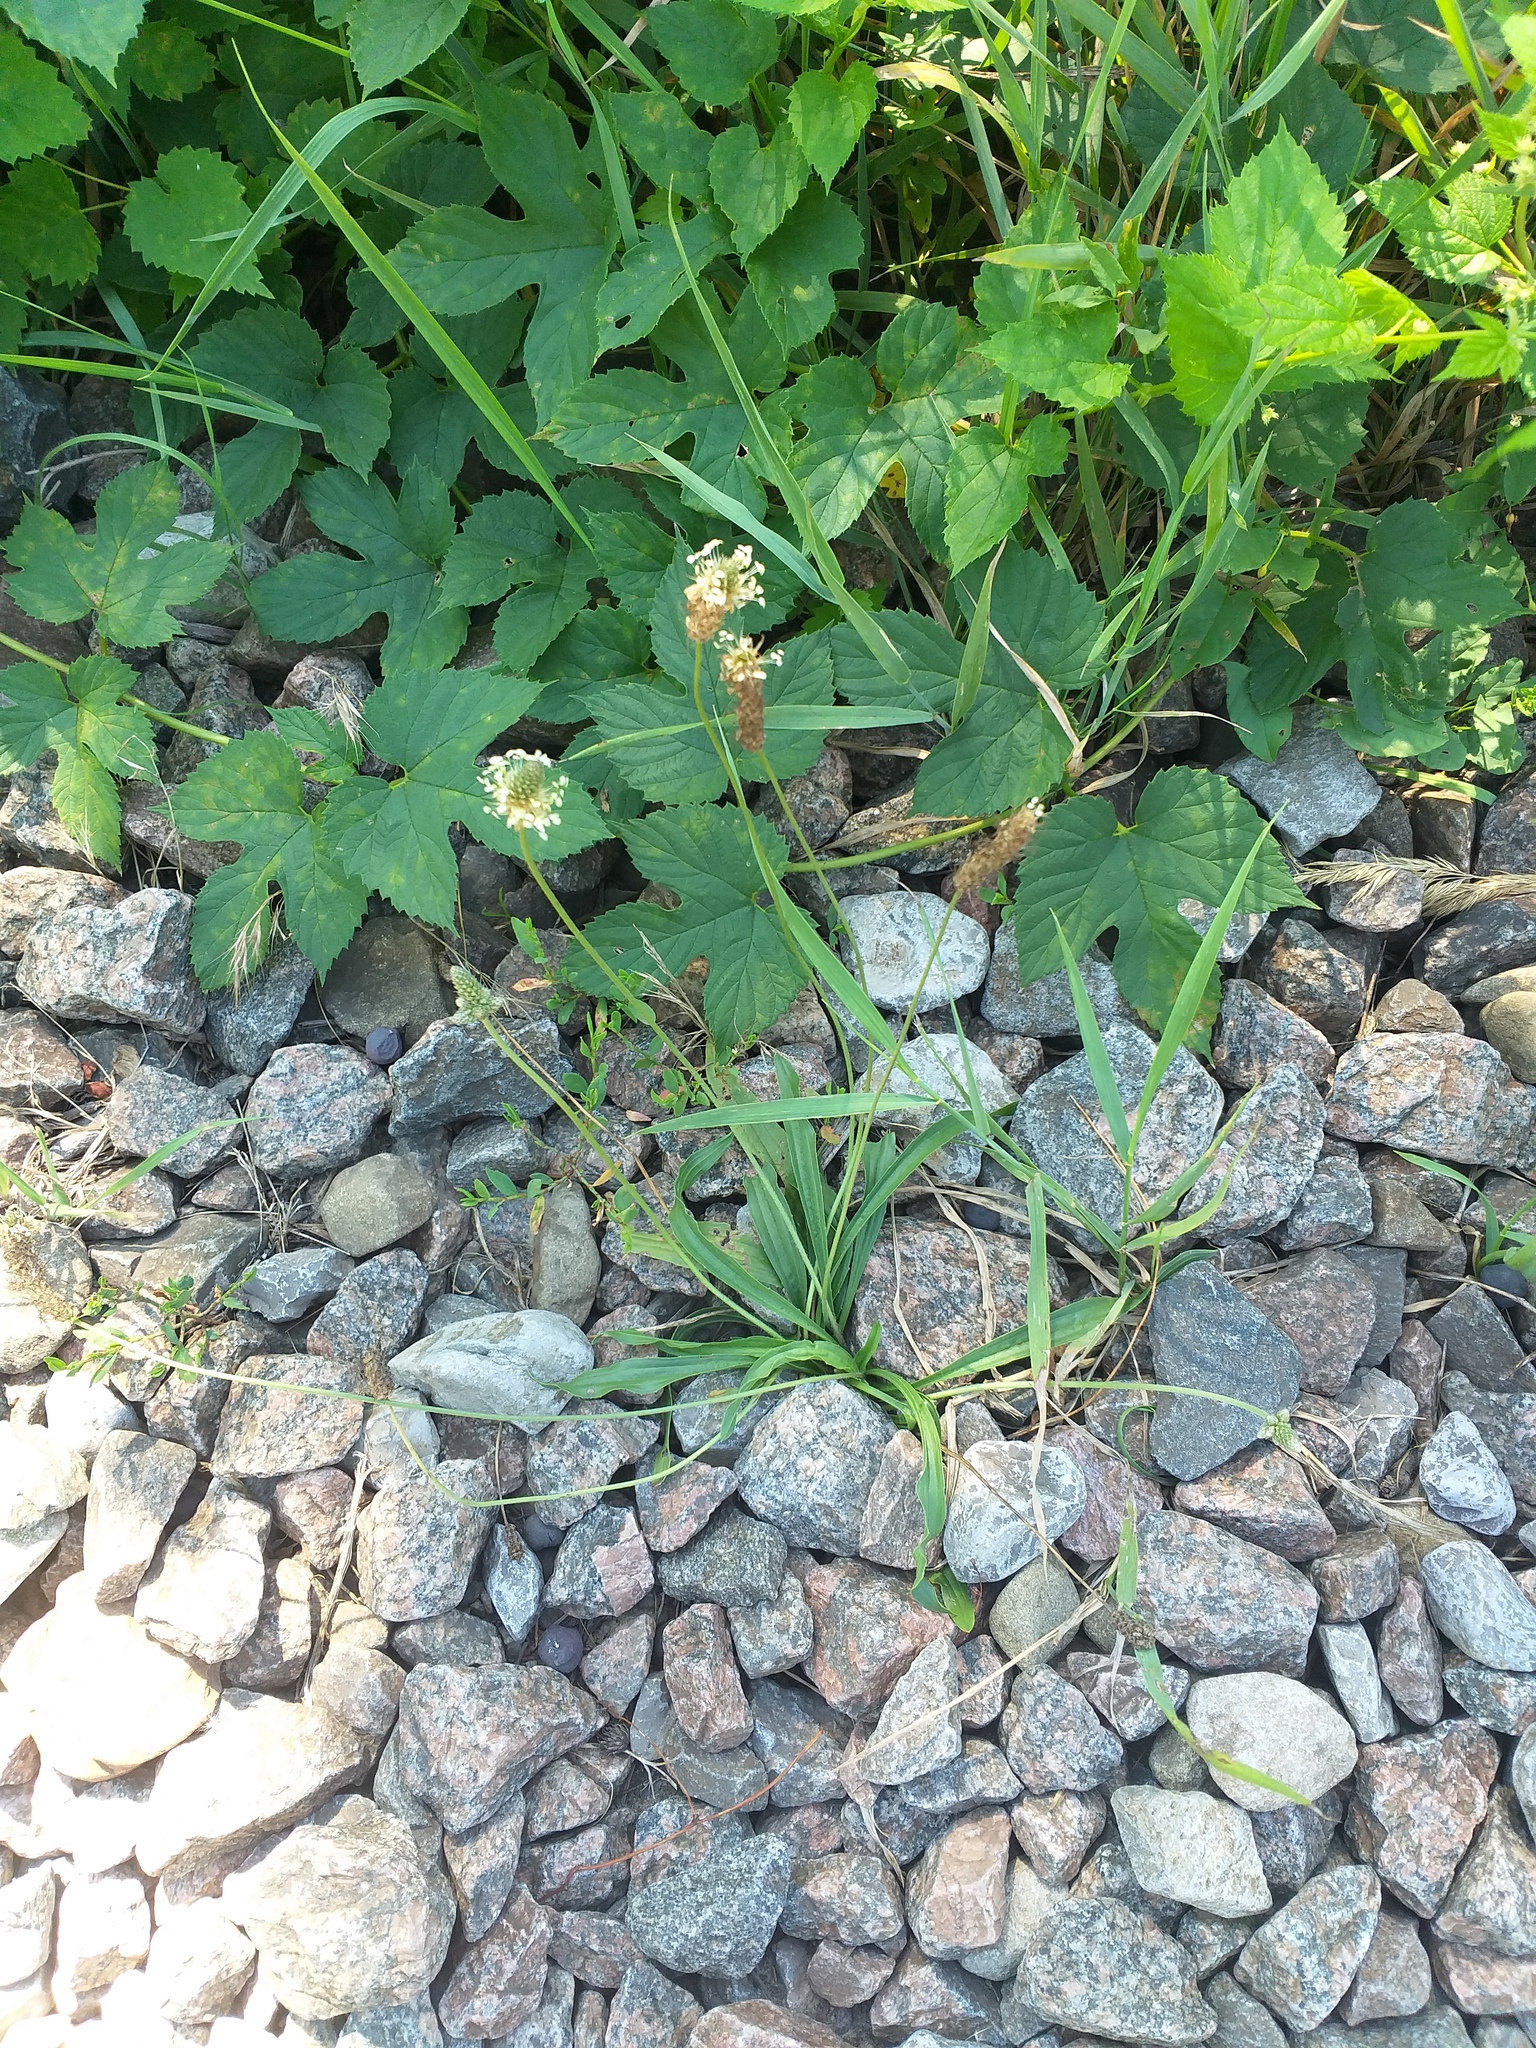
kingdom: Plantae
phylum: Tracheophyta
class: Magnoliopsida
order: Lamiales
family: Plantaginaceae
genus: Plantago
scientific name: Plantago lanceolata
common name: Ribwort plantain
